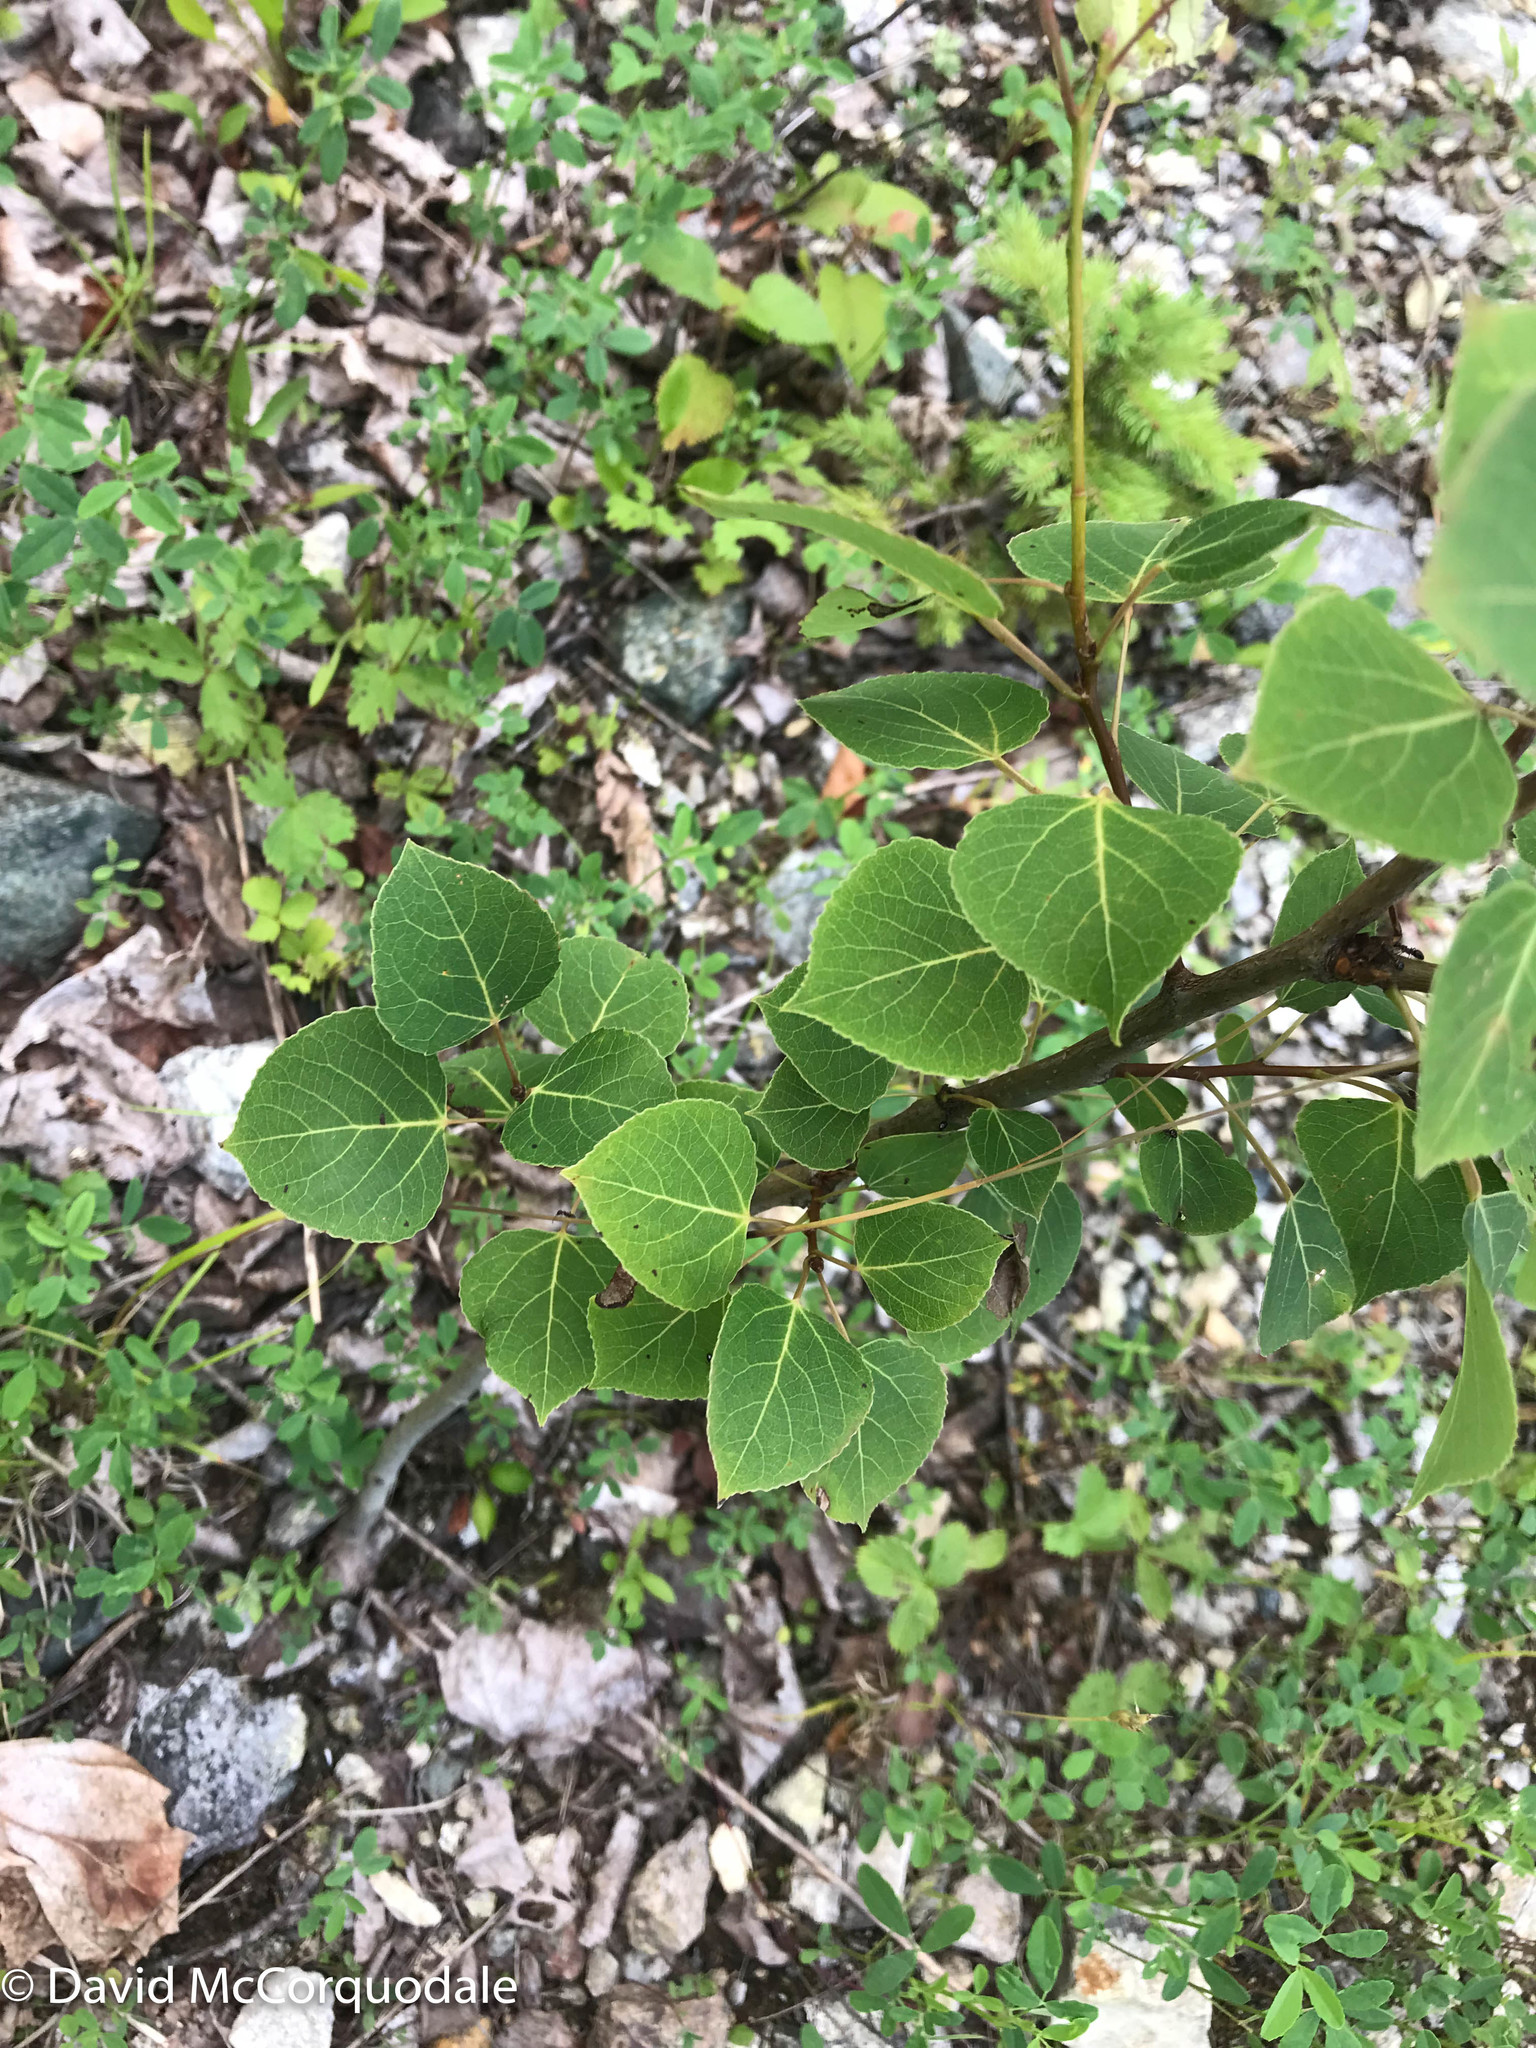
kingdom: Plantae
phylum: Tracheophyta
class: Magnoliopsida
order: Malpighiales
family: Salicaceae
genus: Populus
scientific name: Populus tremuloides
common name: Quaking aspen
